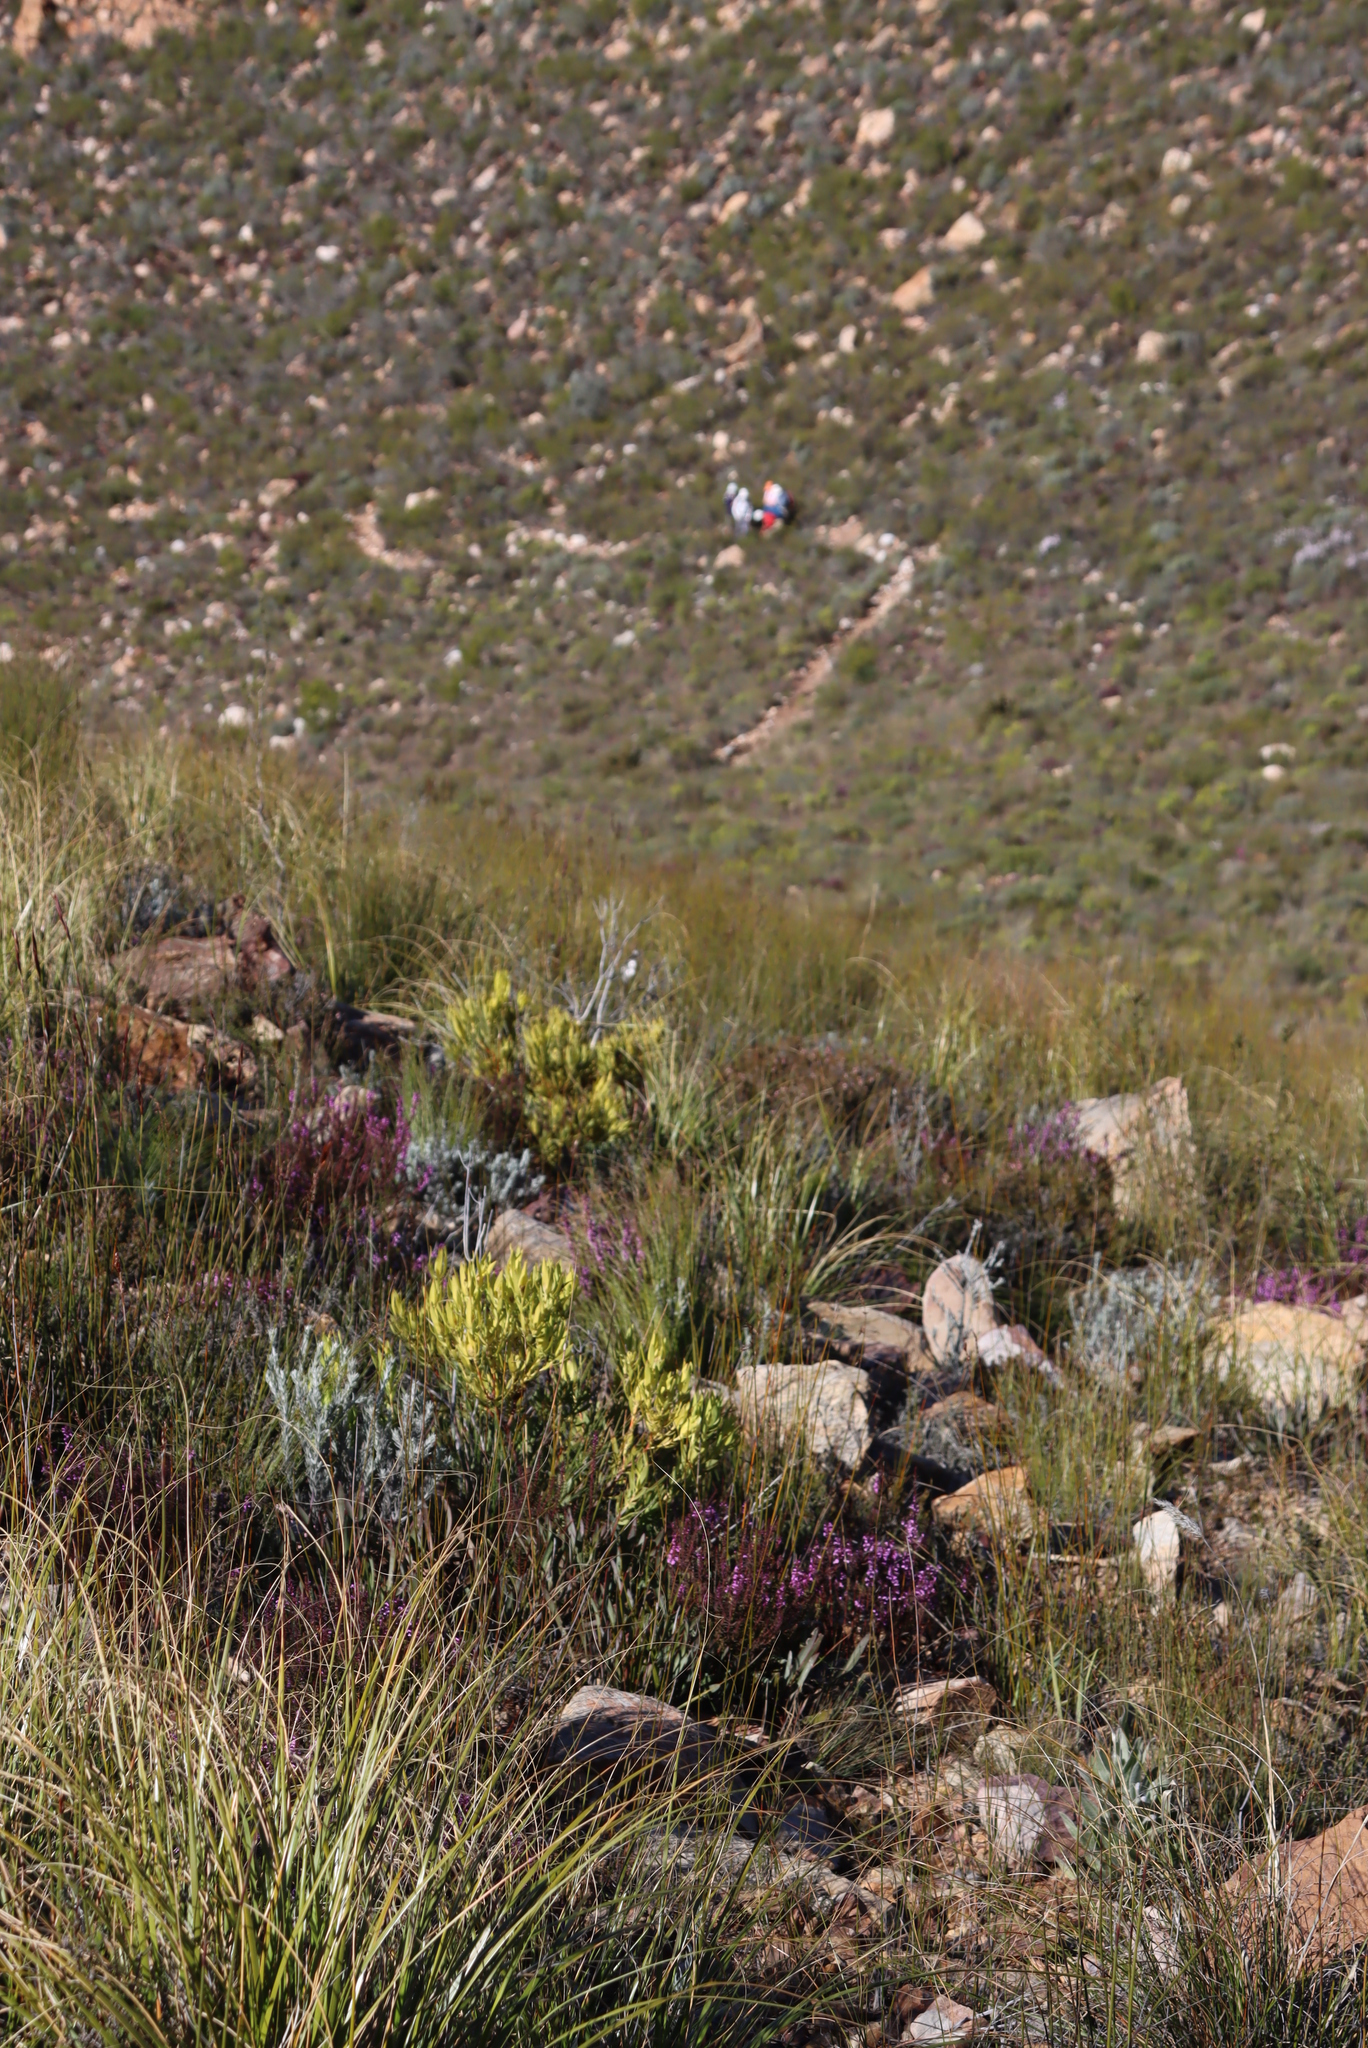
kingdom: Plantae
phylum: Tracheophyta
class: Magnoliopsida
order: Proteales
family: Proteaceae
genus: Leucadendron
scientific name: Leucadendron salignum
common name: Common sunshine conebush
